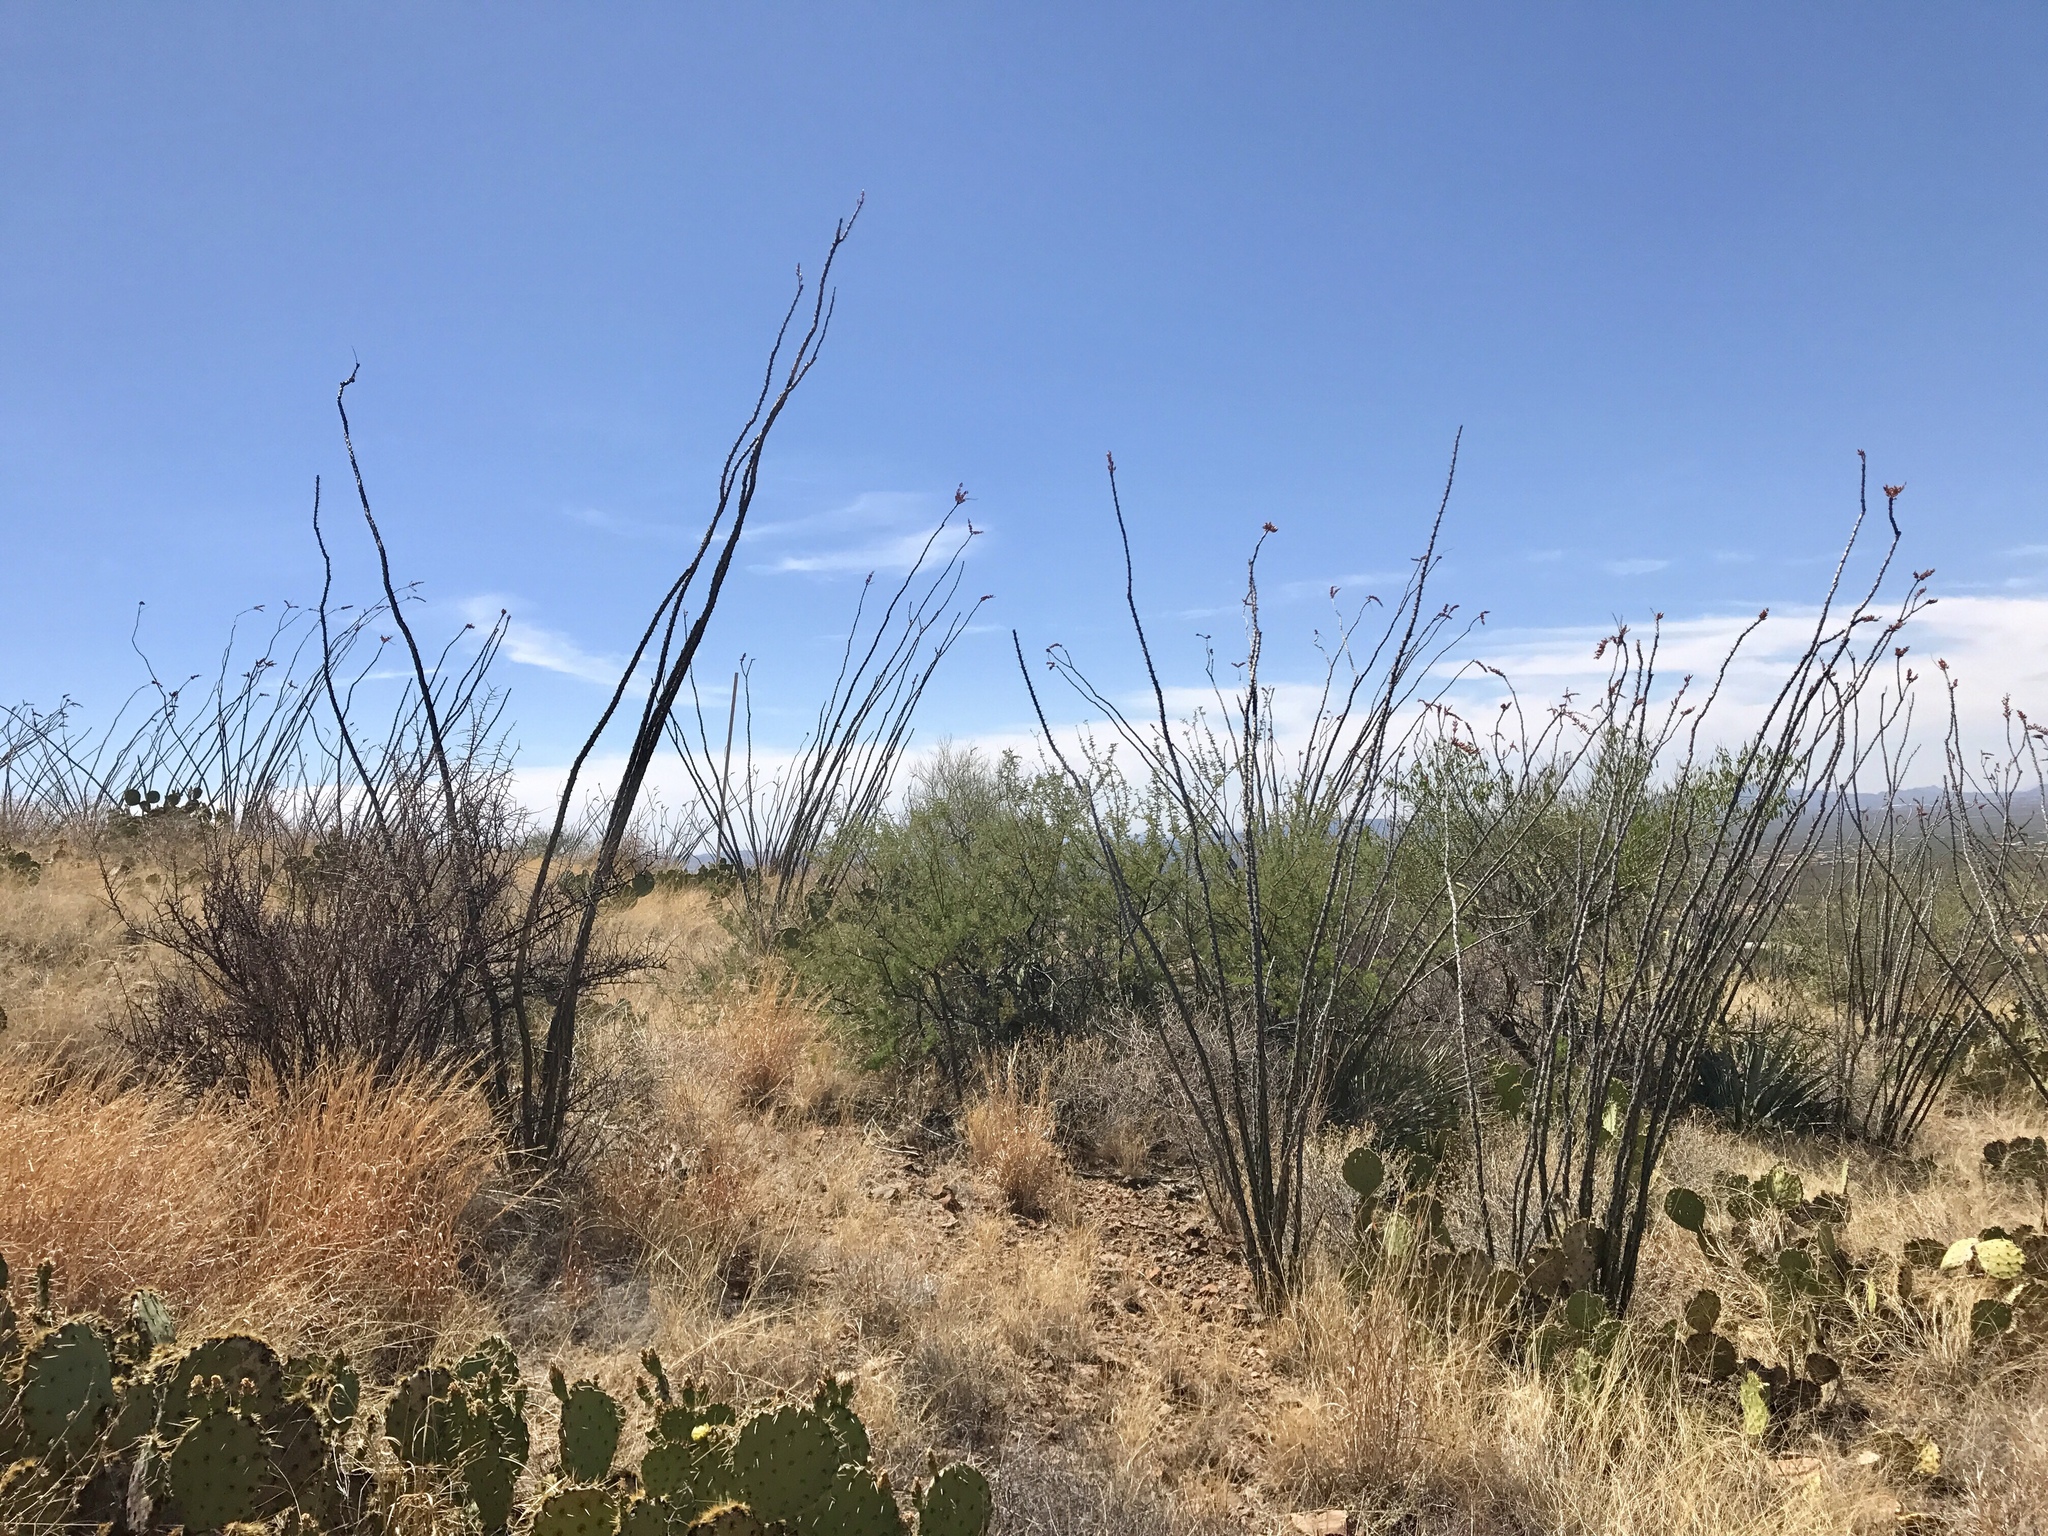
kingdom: Plantae
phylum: Tracheophyta
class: Magnoliopsida
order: Ericales
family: Fouquieriaceae
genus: Fouquieria
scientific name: Fouquieria splendens
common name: Vine-cactus
